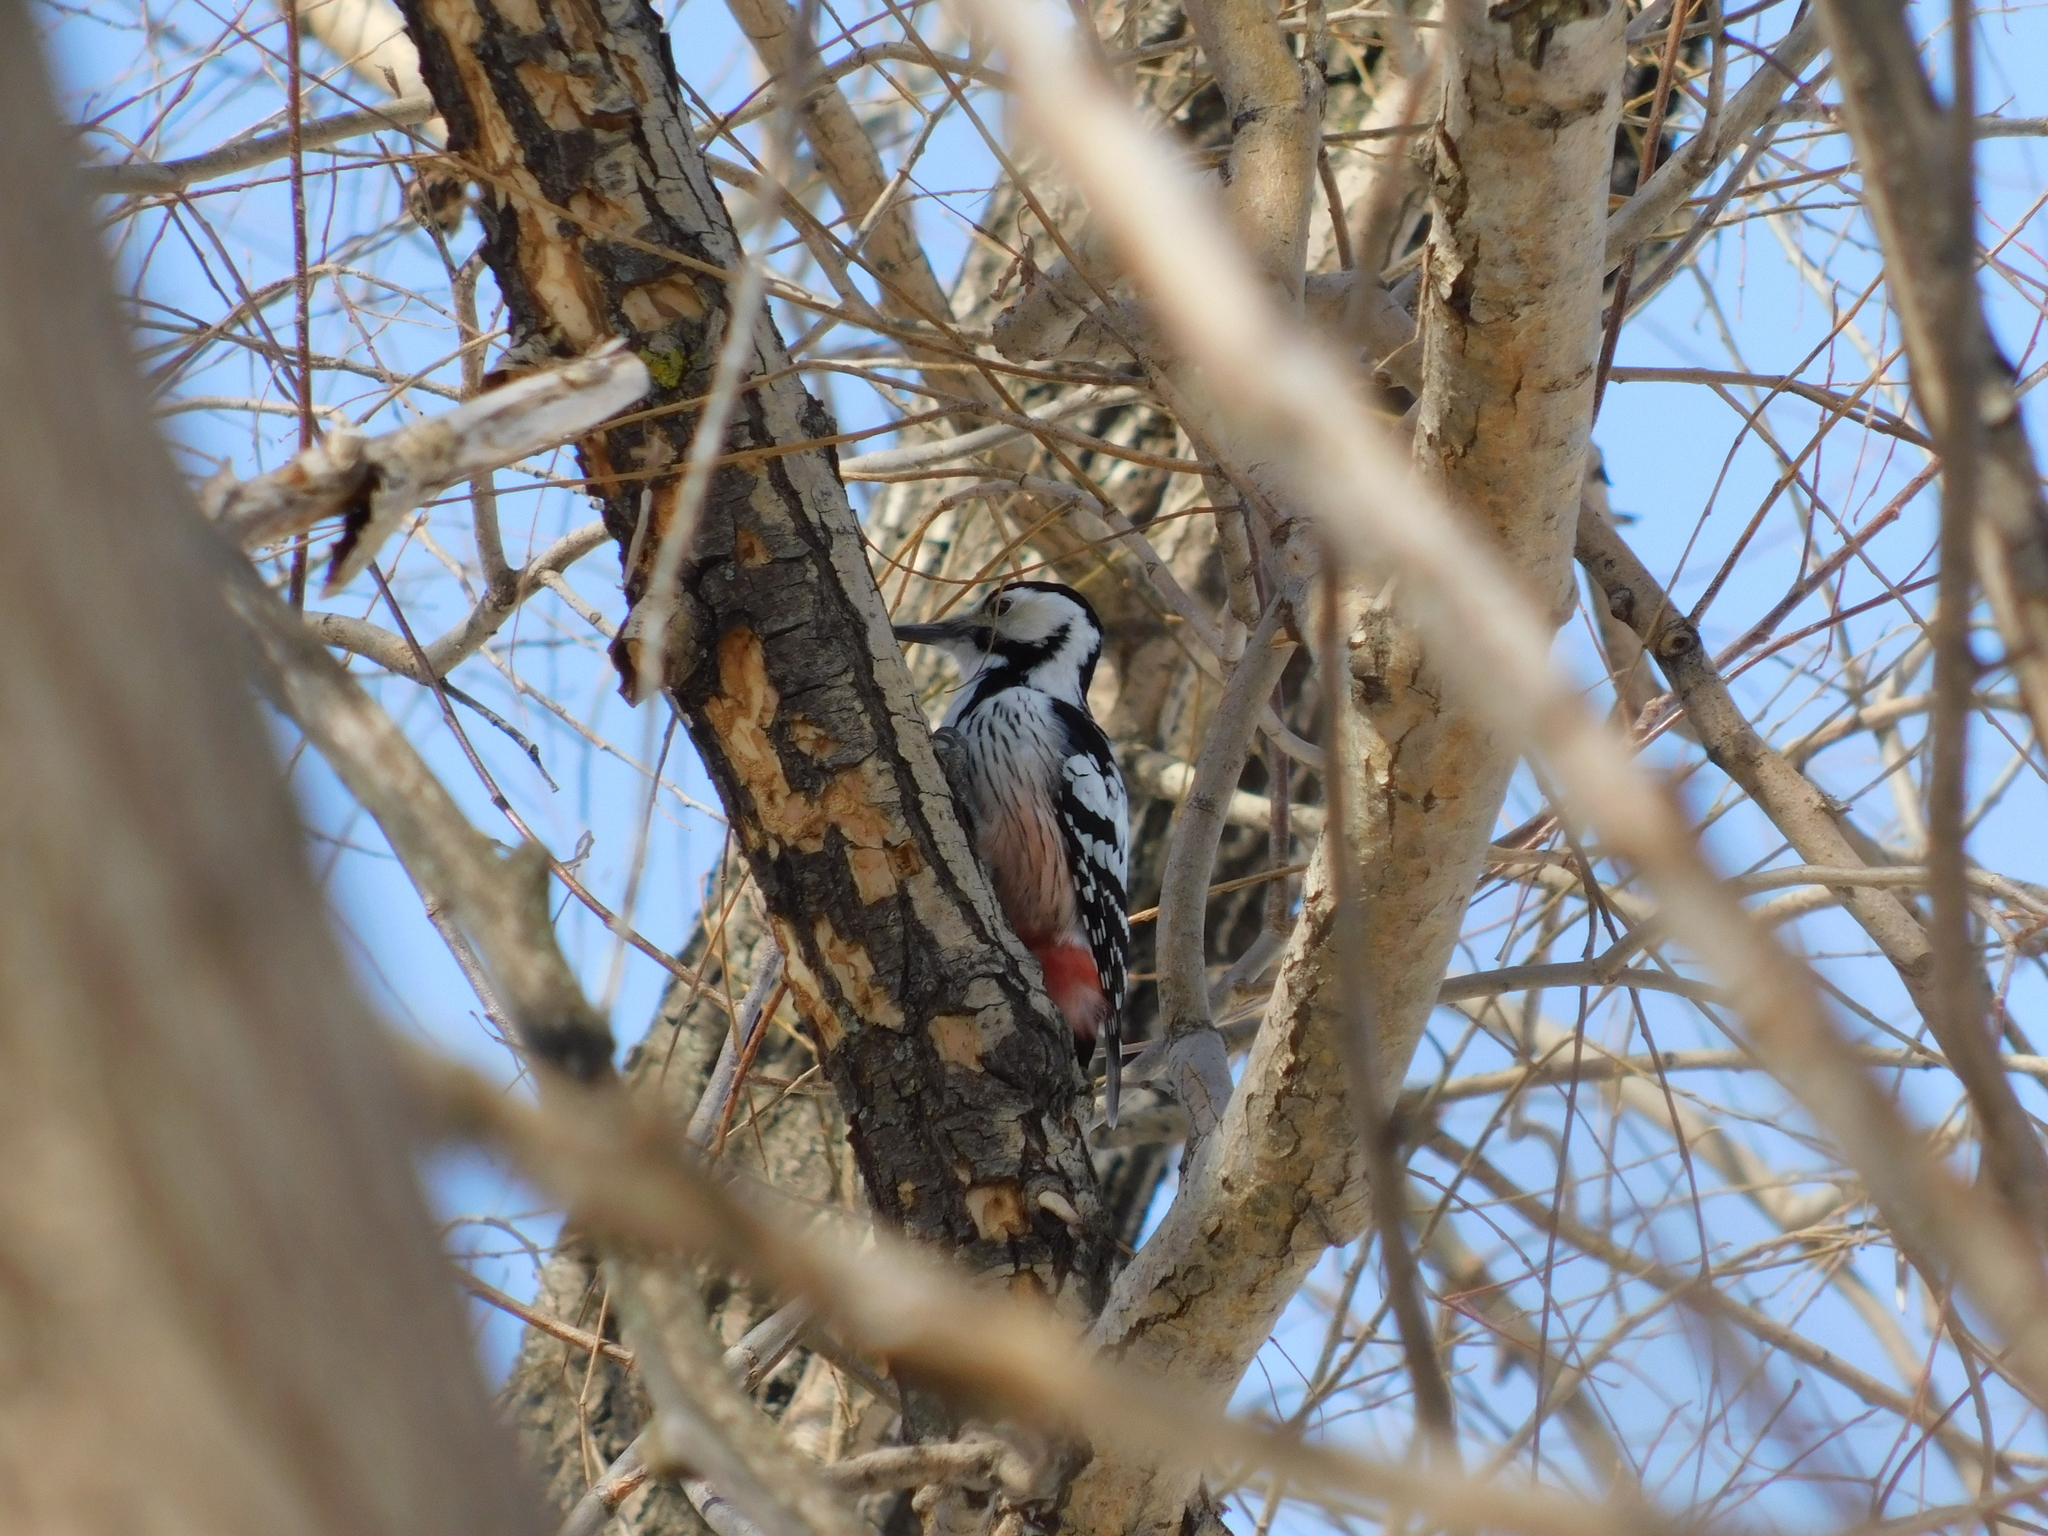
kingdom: Animalia
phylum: Chordata
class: Aves
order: Piciformes
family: Picidae
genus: Dendrocopos
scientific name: Dendrocopos leucotos
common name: White-backed woodpecker
